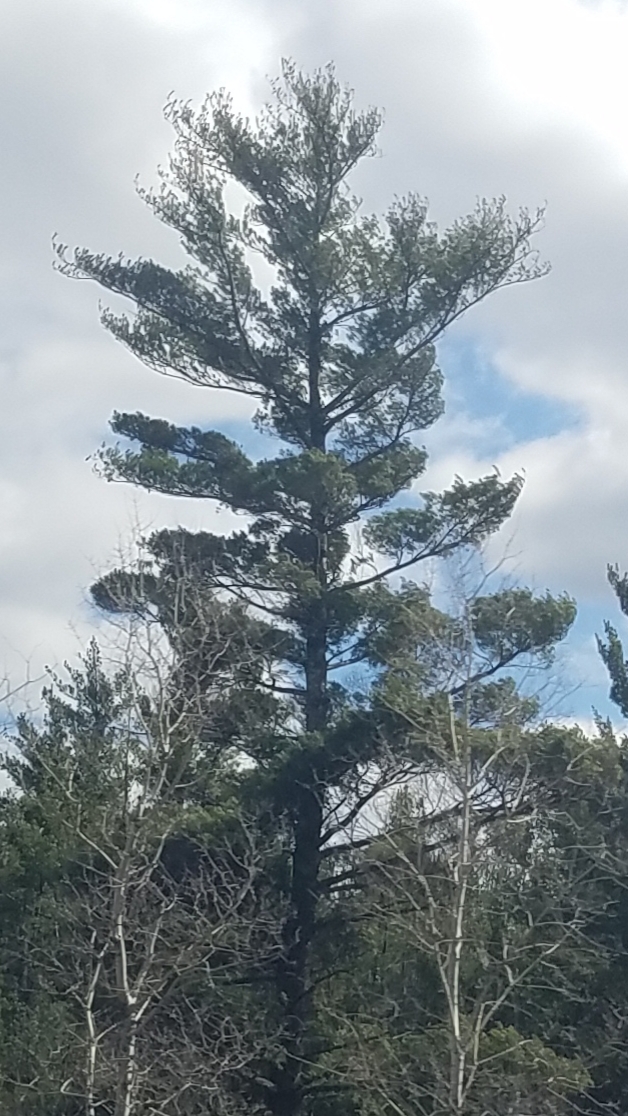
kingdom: Plantae
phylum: Tracheophyta
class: Pinopsida
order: Pinales
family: Pinaceae
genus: Pinus
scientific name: Pinus strobus
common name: Weymouth pine
